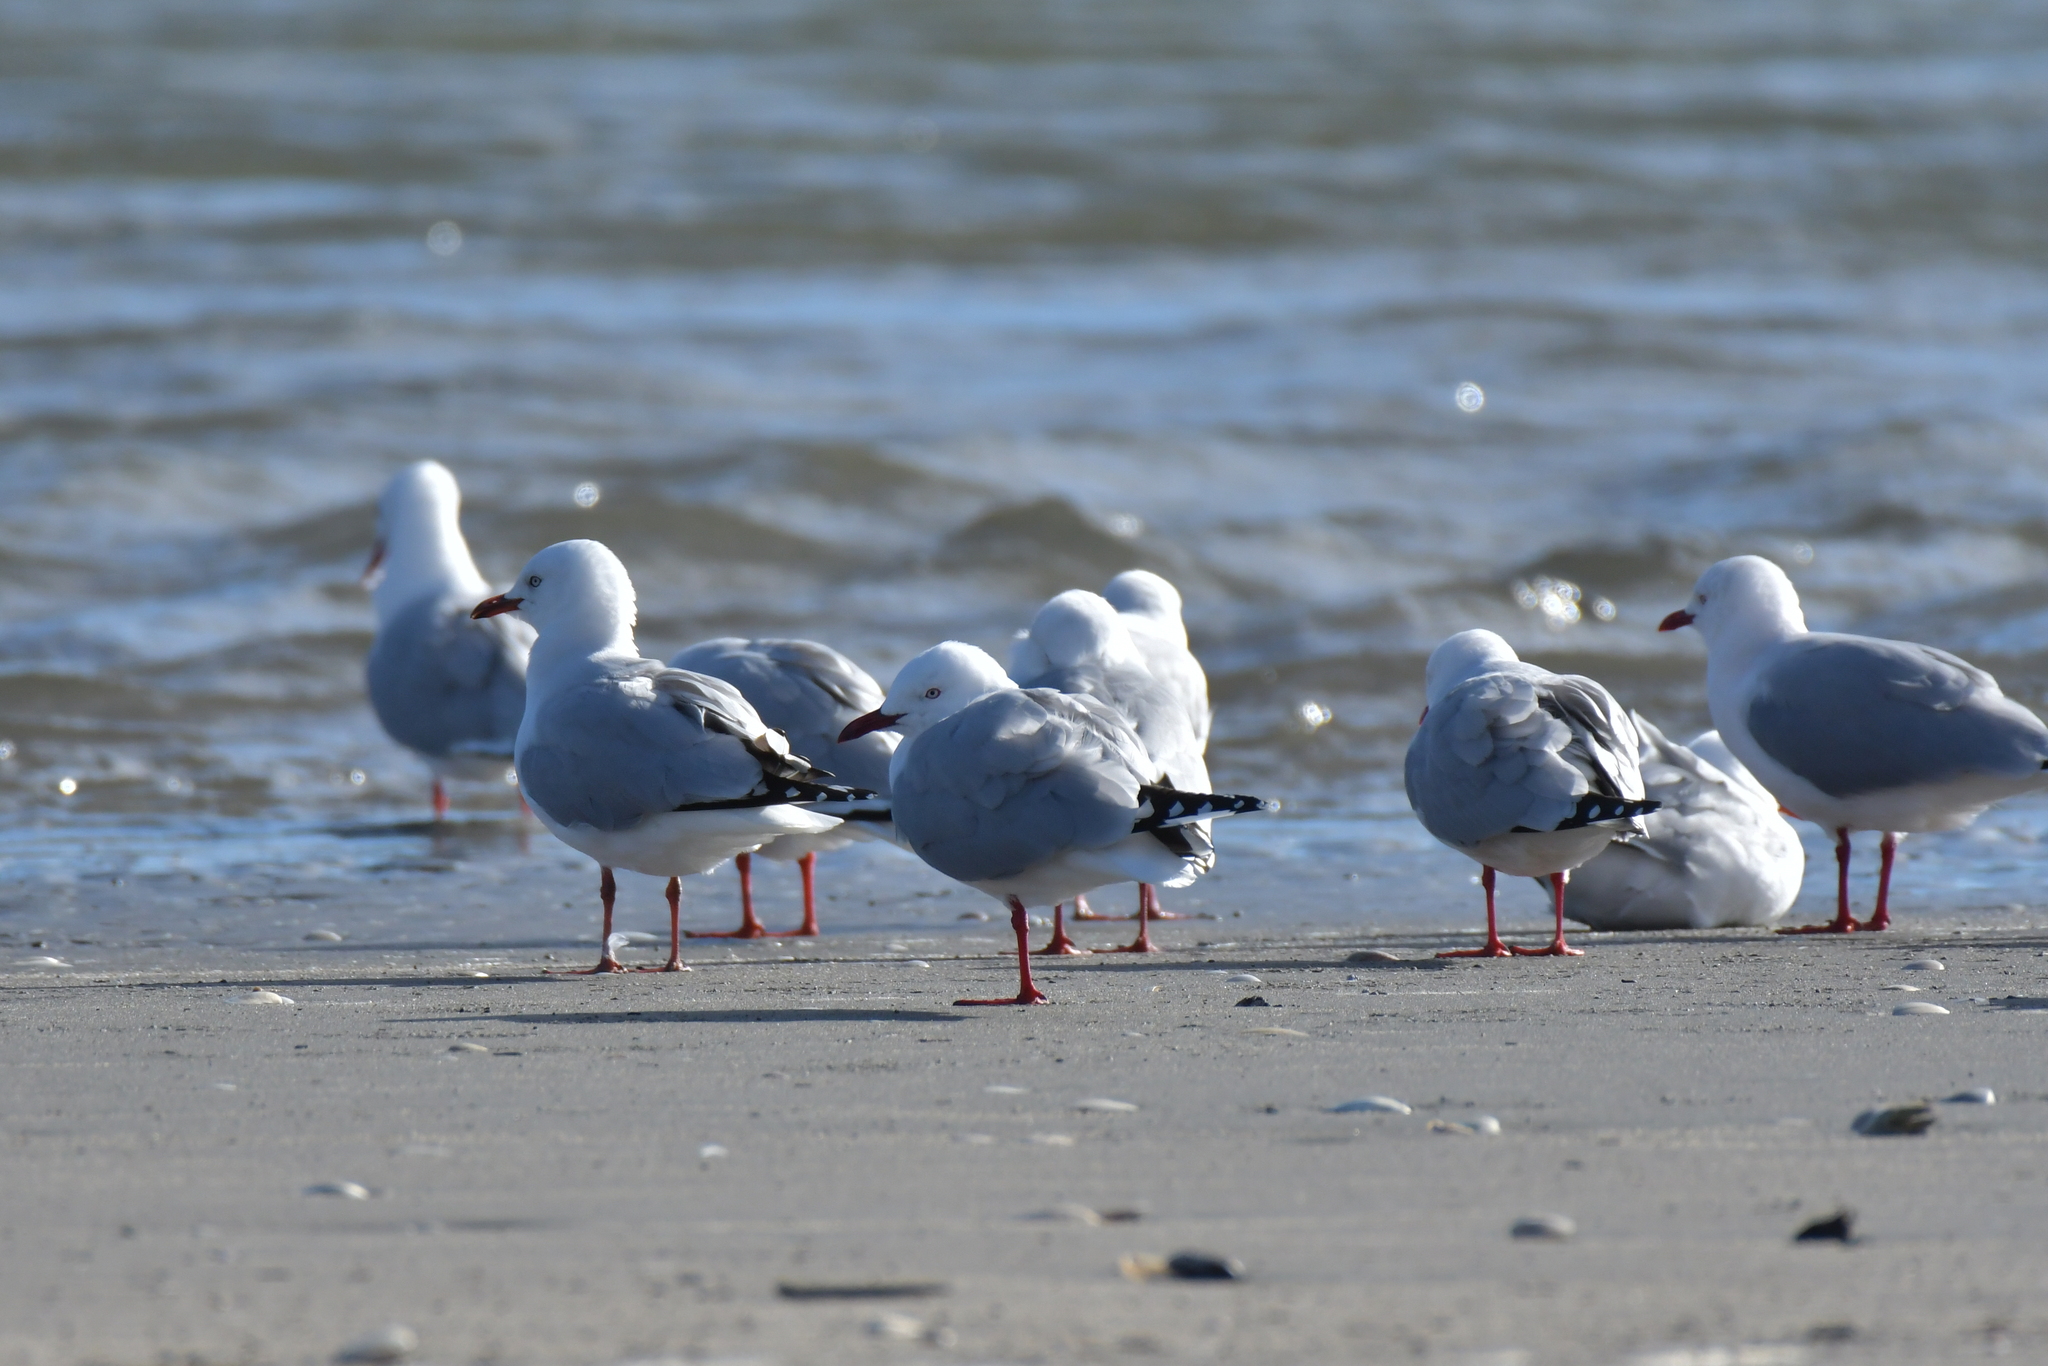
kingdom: Animalia
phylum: Chordata
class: Aves
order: Charadriiformes
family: Laridae
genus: Chroicocephalus
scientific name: Chroicocephalus novaehollandiae
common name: Silver gull
